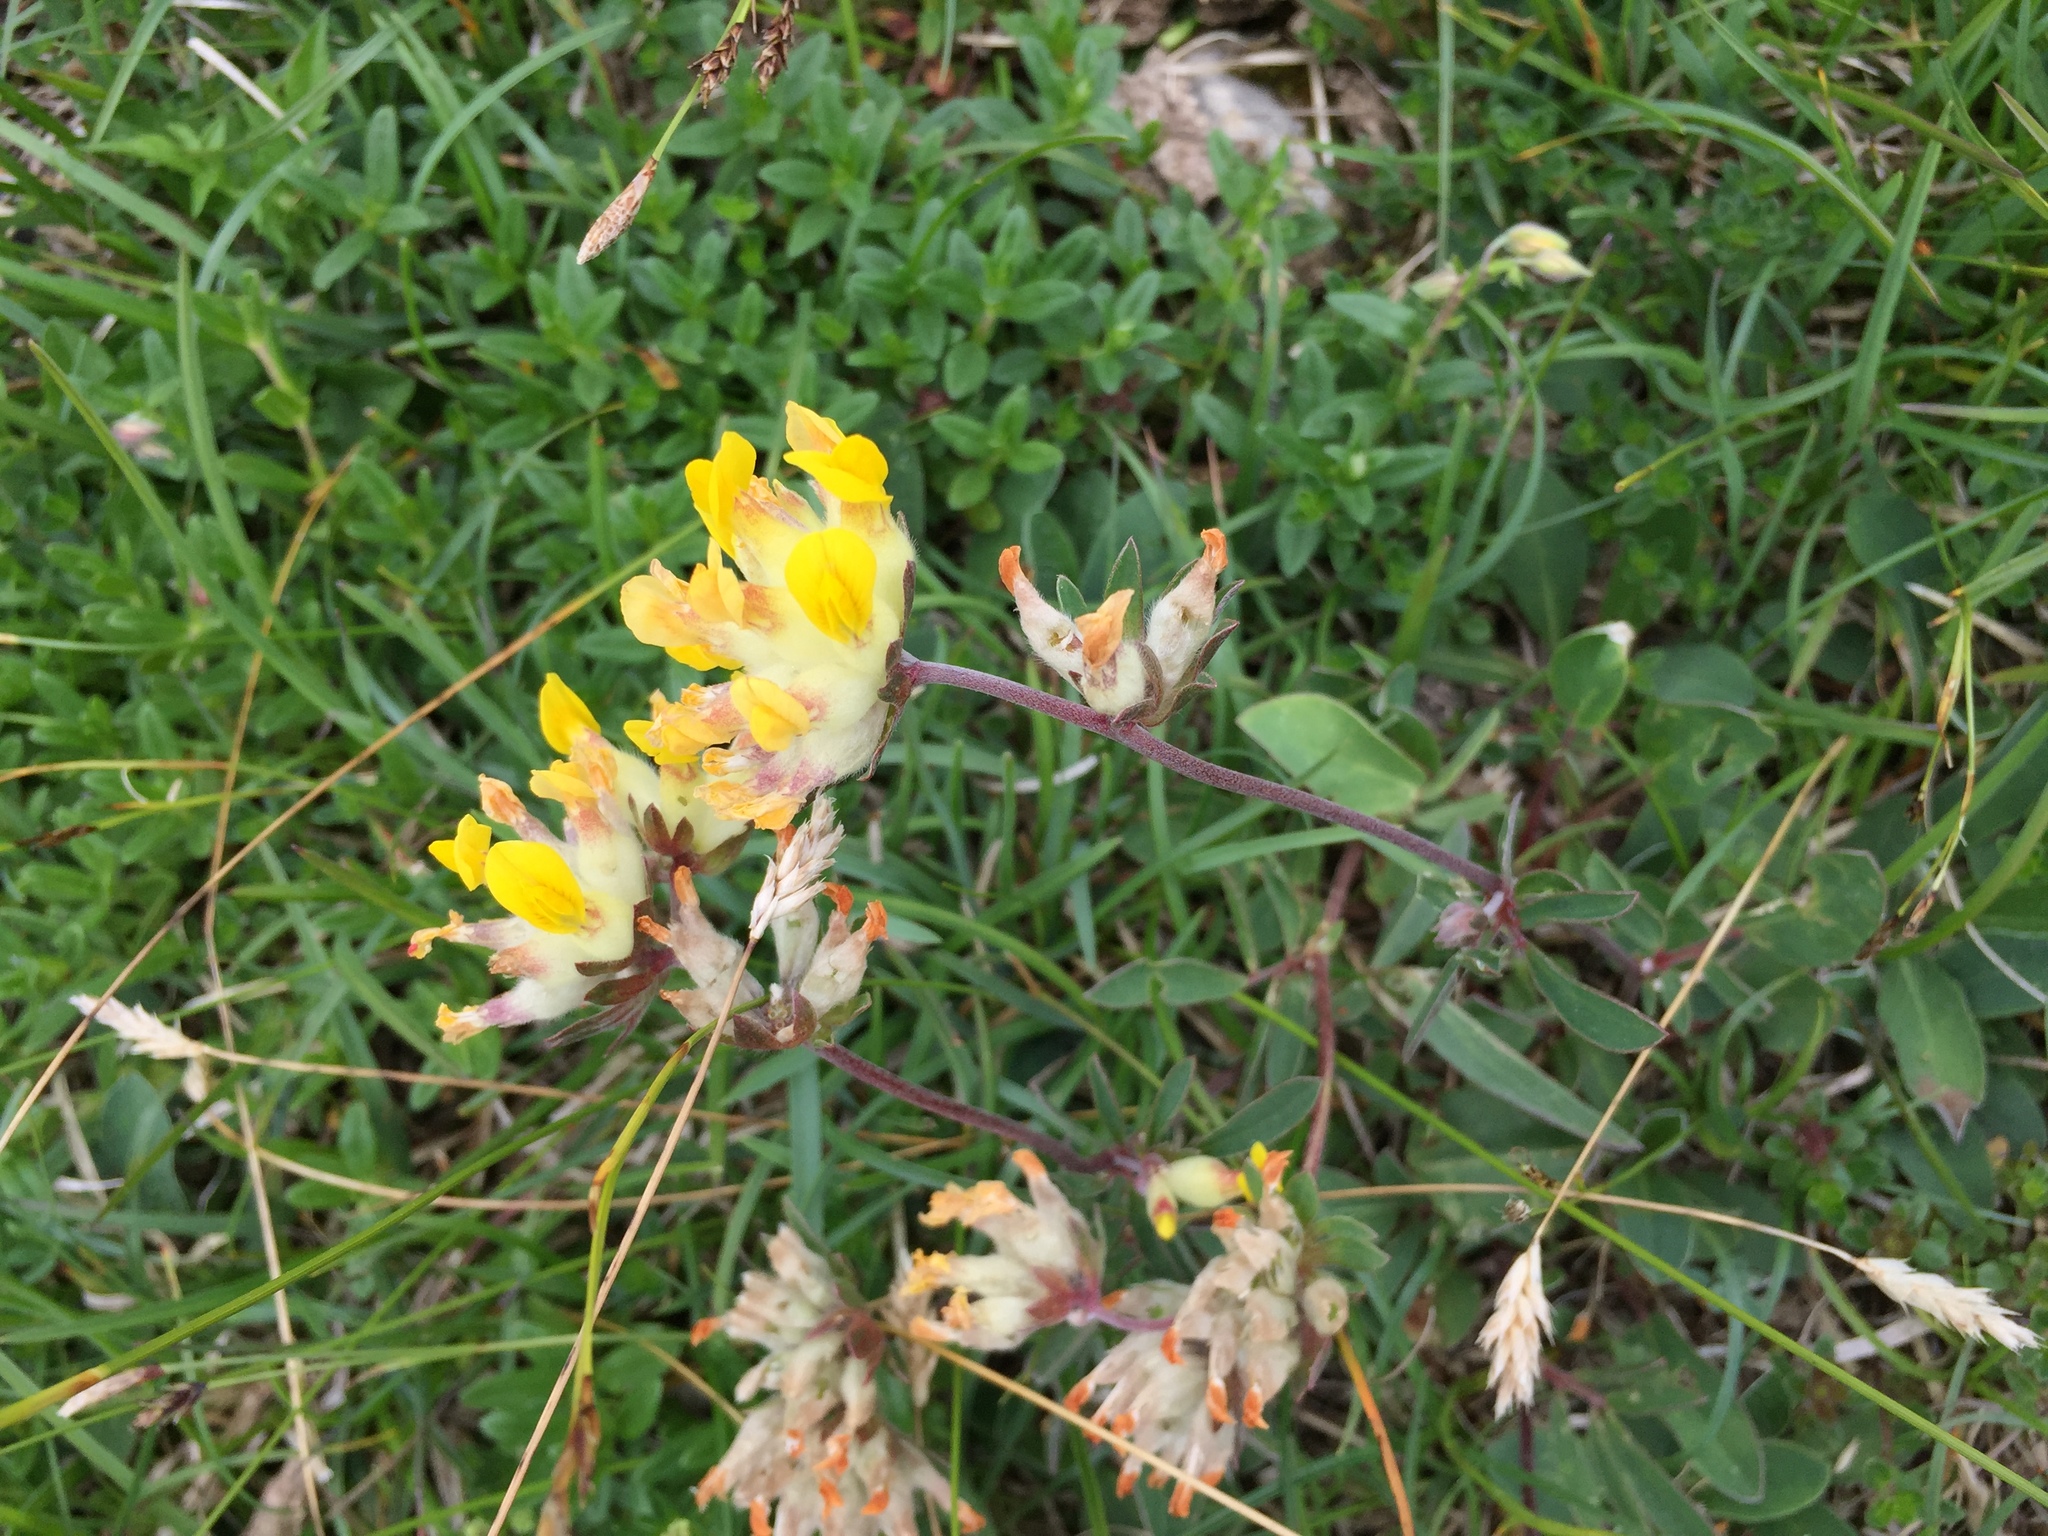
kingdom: Plantae
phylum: Tracheophyta
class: Magnoliopsida
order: Fabales
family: Fabaceae
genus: Anthyllis
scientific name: Anthyllis vulneraria
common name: Kidney vetch
